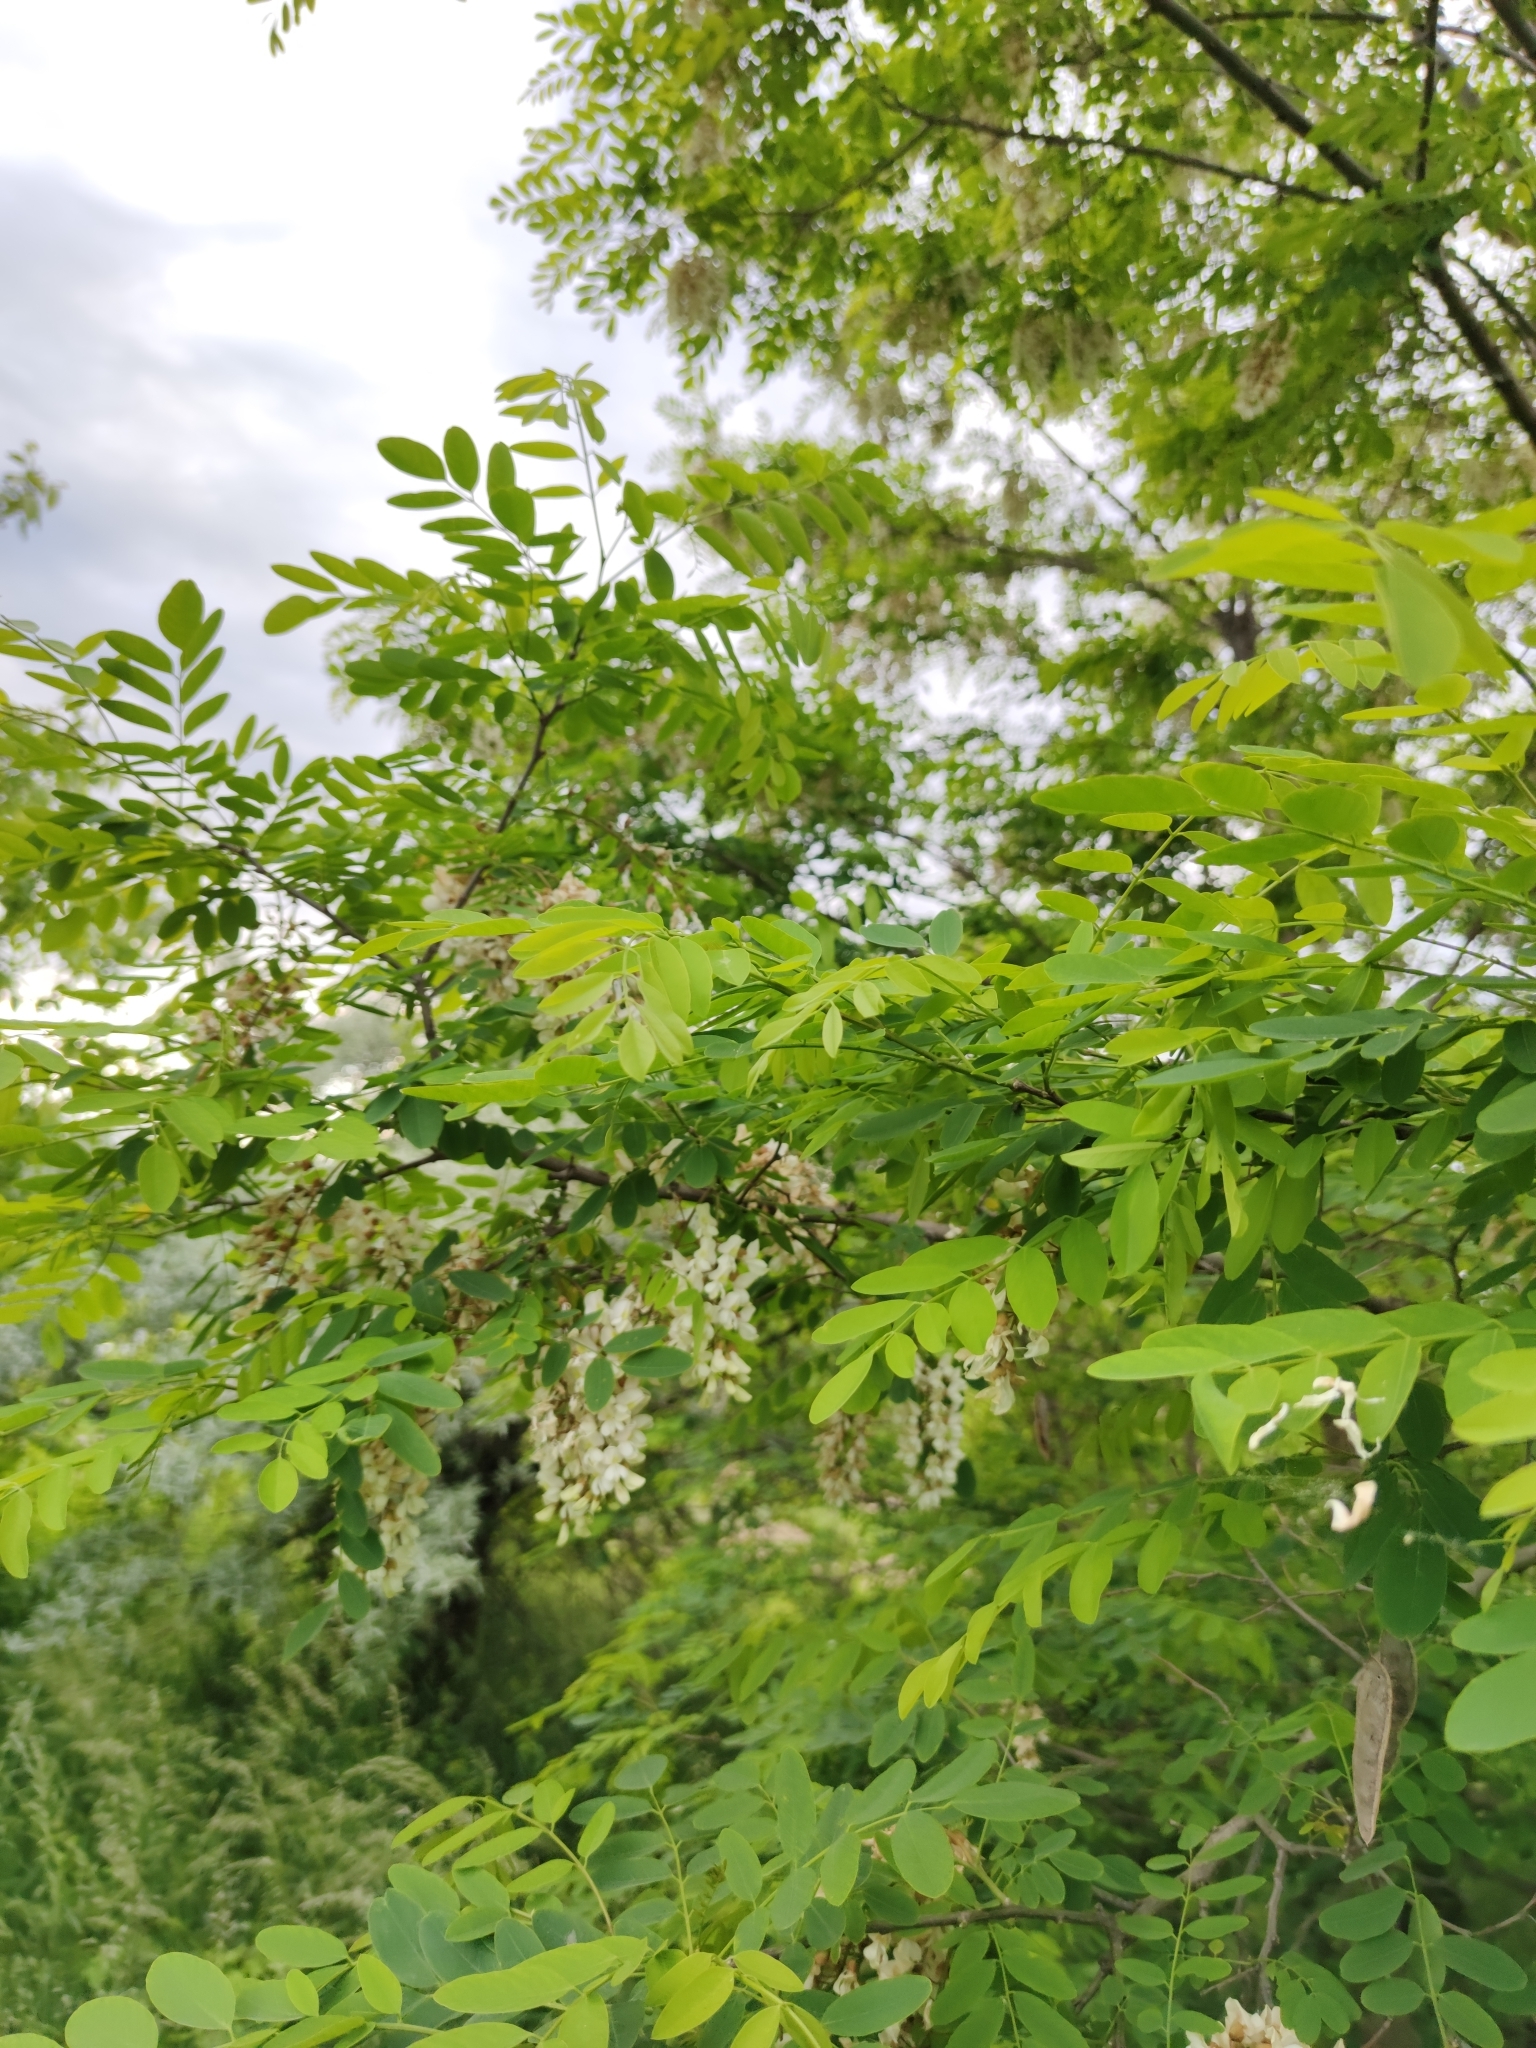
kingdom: Plantae
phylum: Tracheophyta
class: Magnoliopsida
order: Fabales
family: Fabaceae
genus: Robinia
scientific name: Robinia pseudoacacia
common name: Black locust
